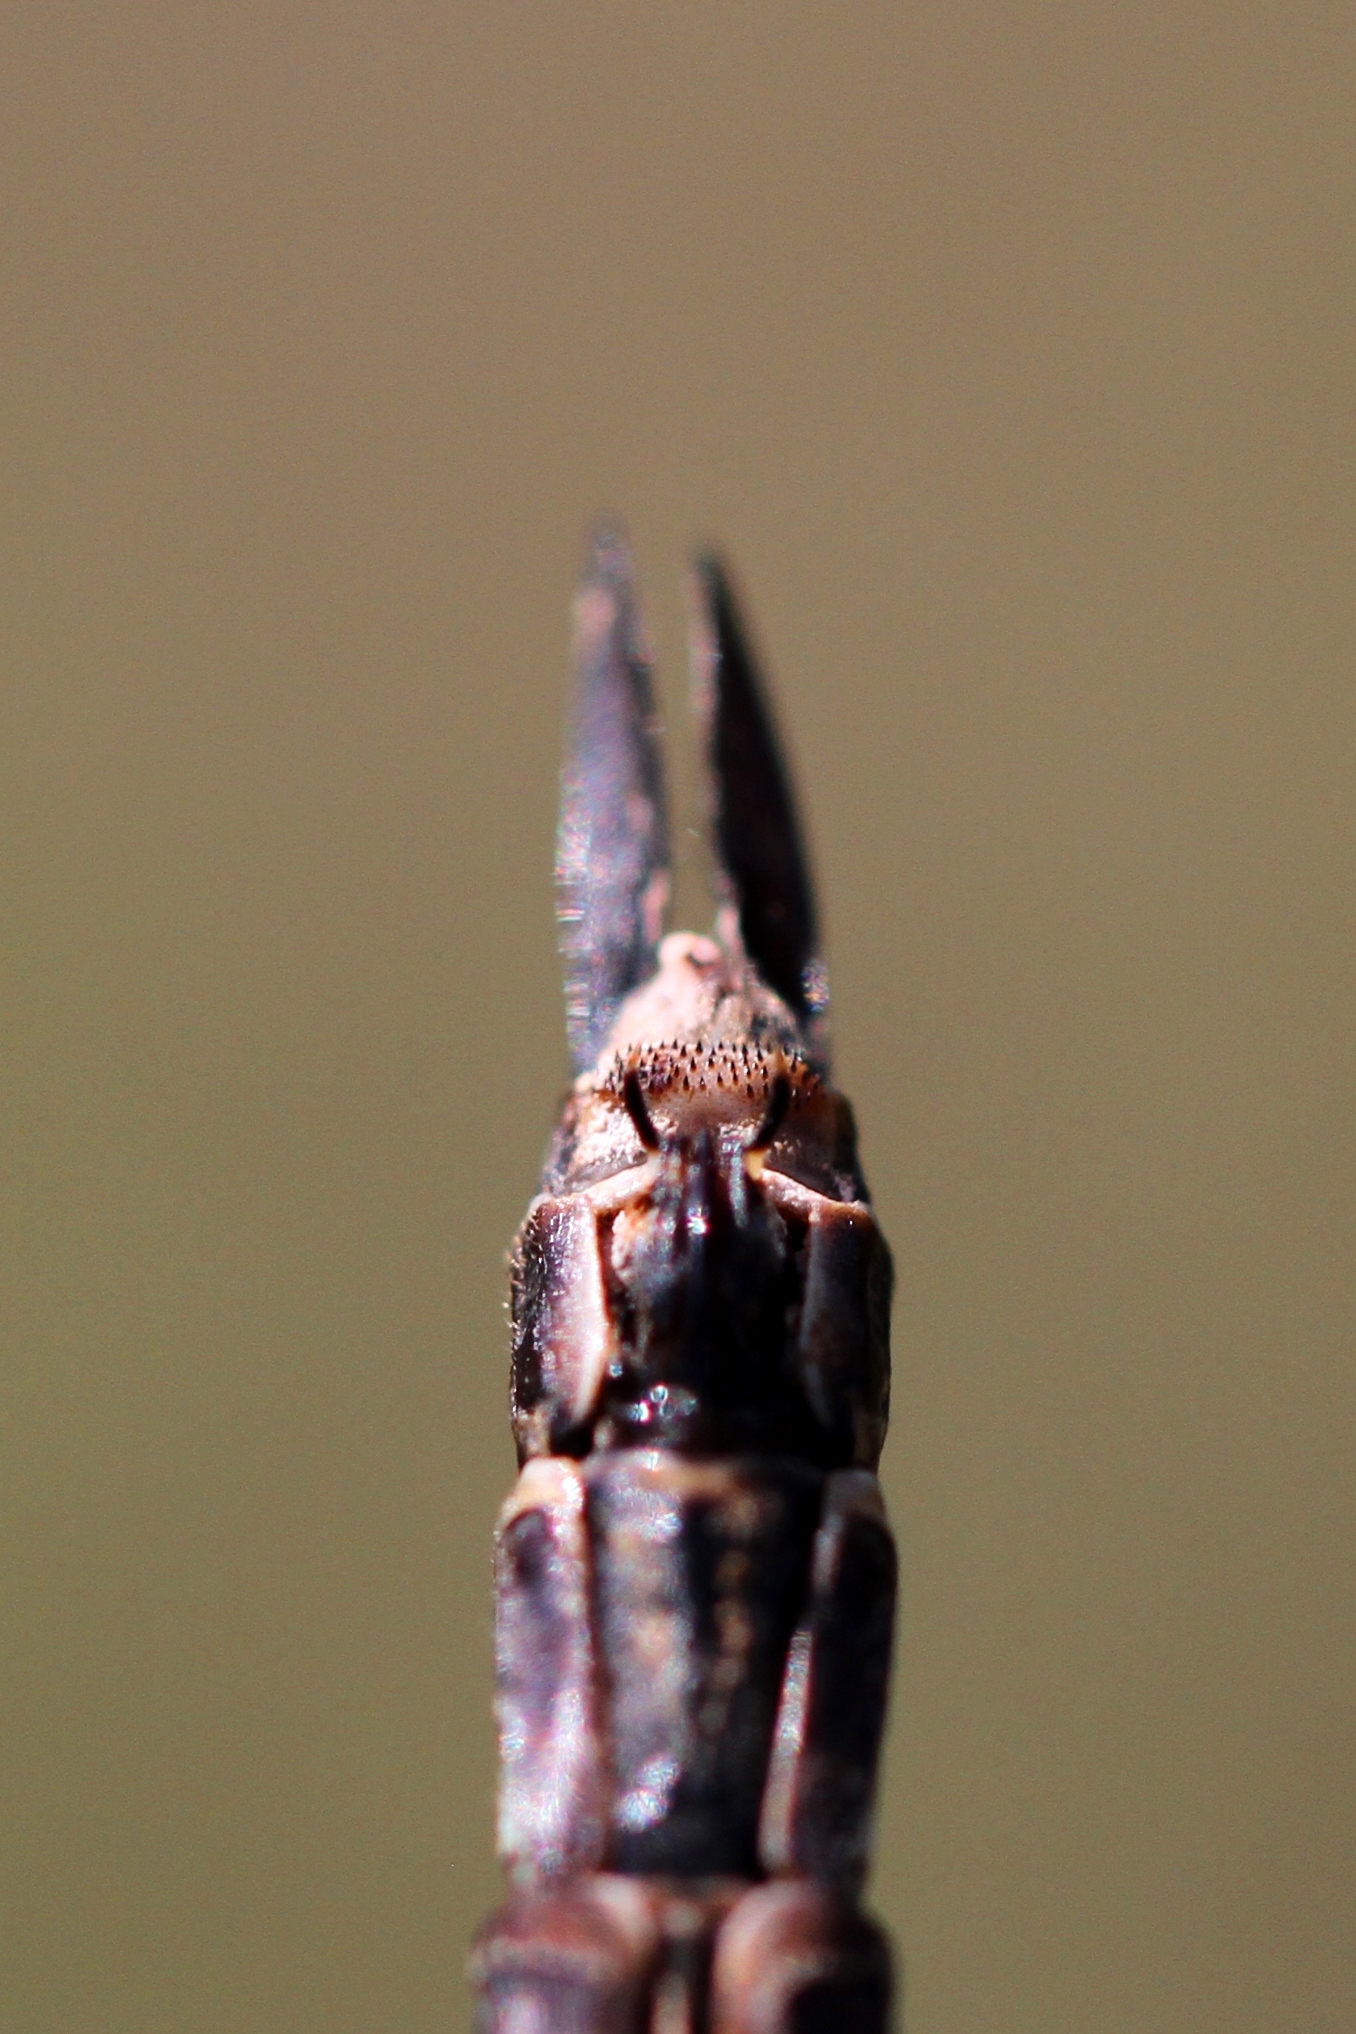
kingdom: Animalia
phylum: Arthropoda
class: Insecta
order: Odonata
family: Aeshnidae
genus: Aeshna
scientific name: Aeshna eremita
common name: Lake darner
